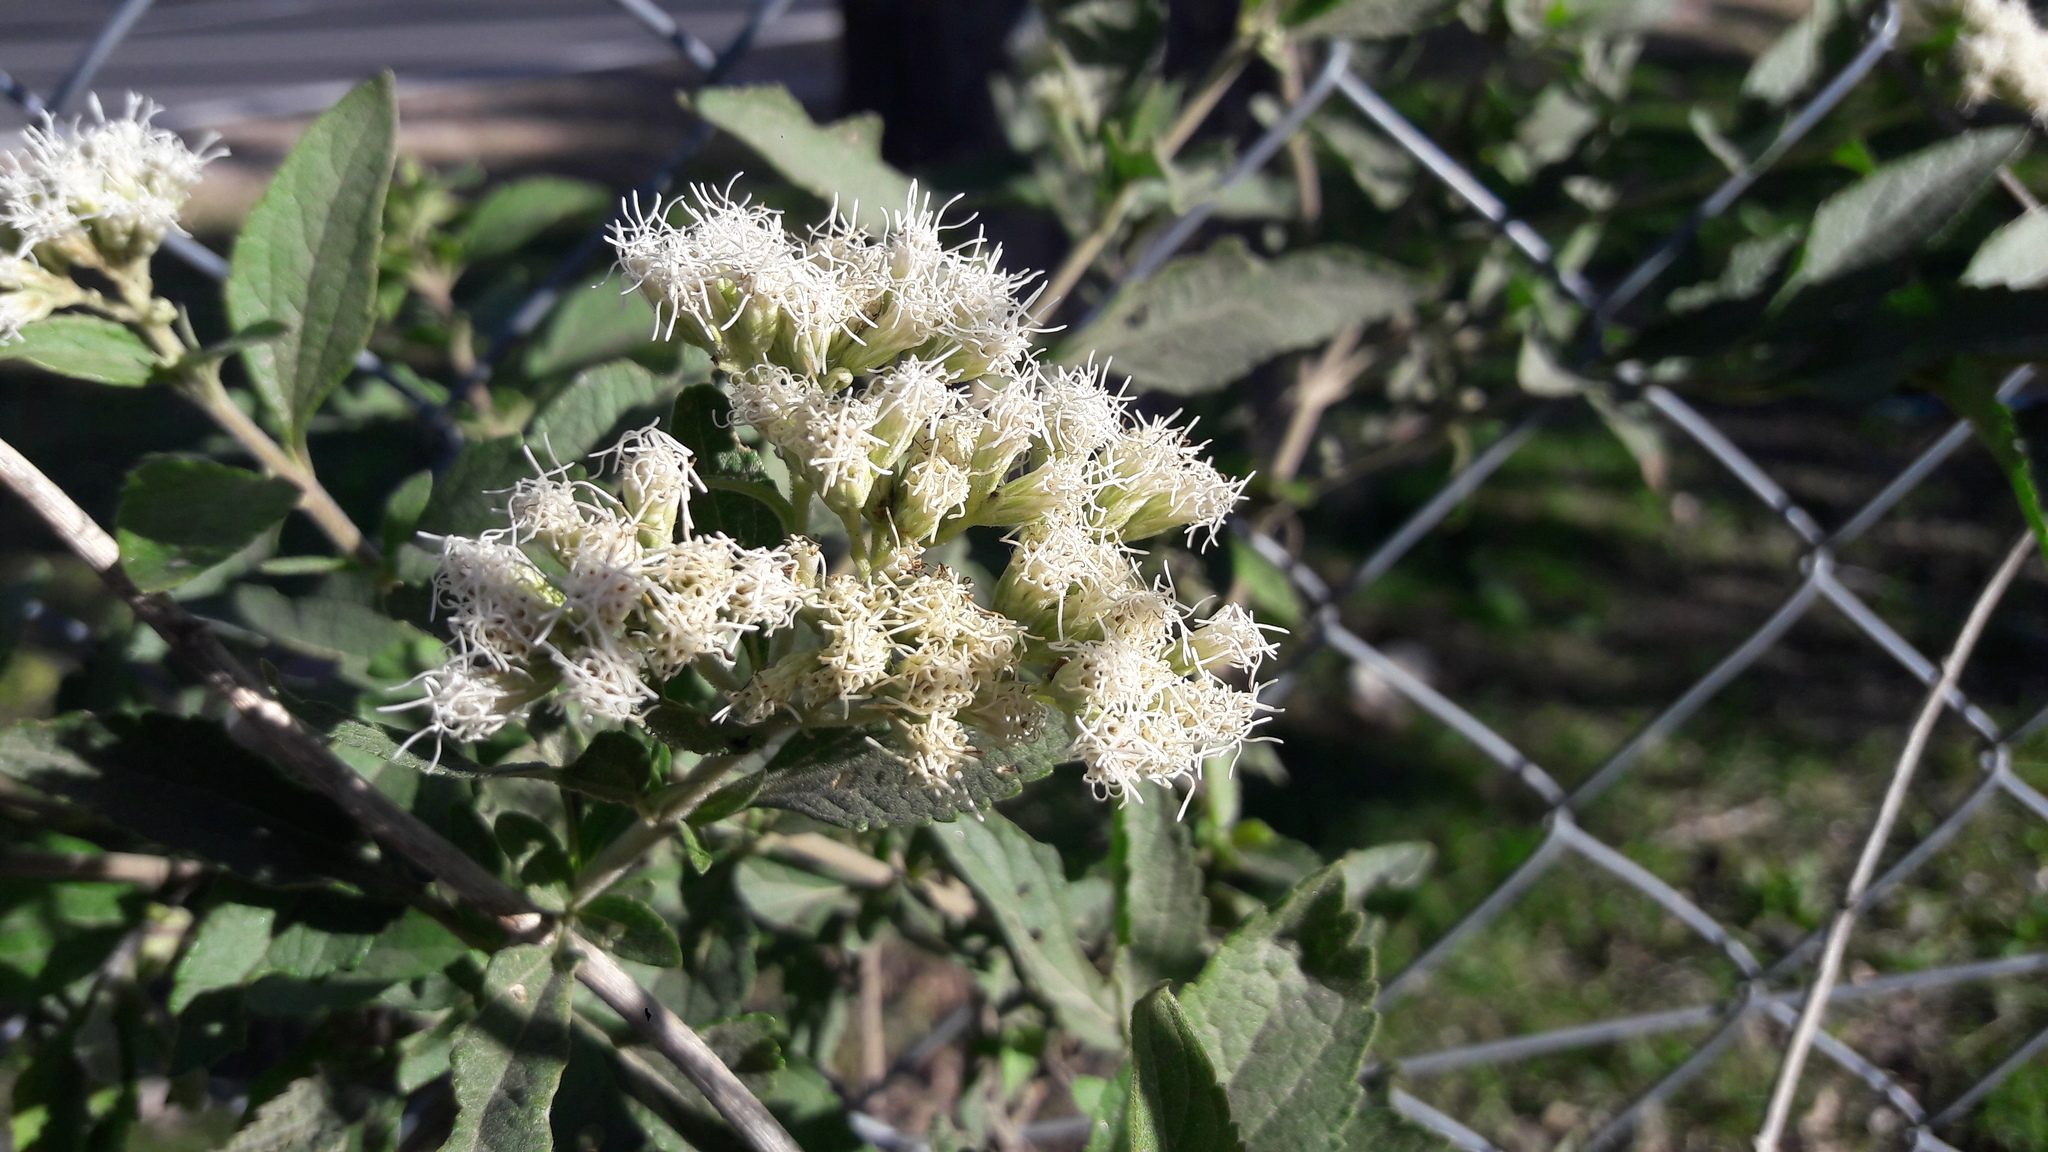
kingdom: Plantae
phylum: Tracheophyta
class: Magnoliopsida
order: Asterales
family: Asteraceae
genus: Austroeupatorium
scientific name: Austroeupatorium inulifolium
